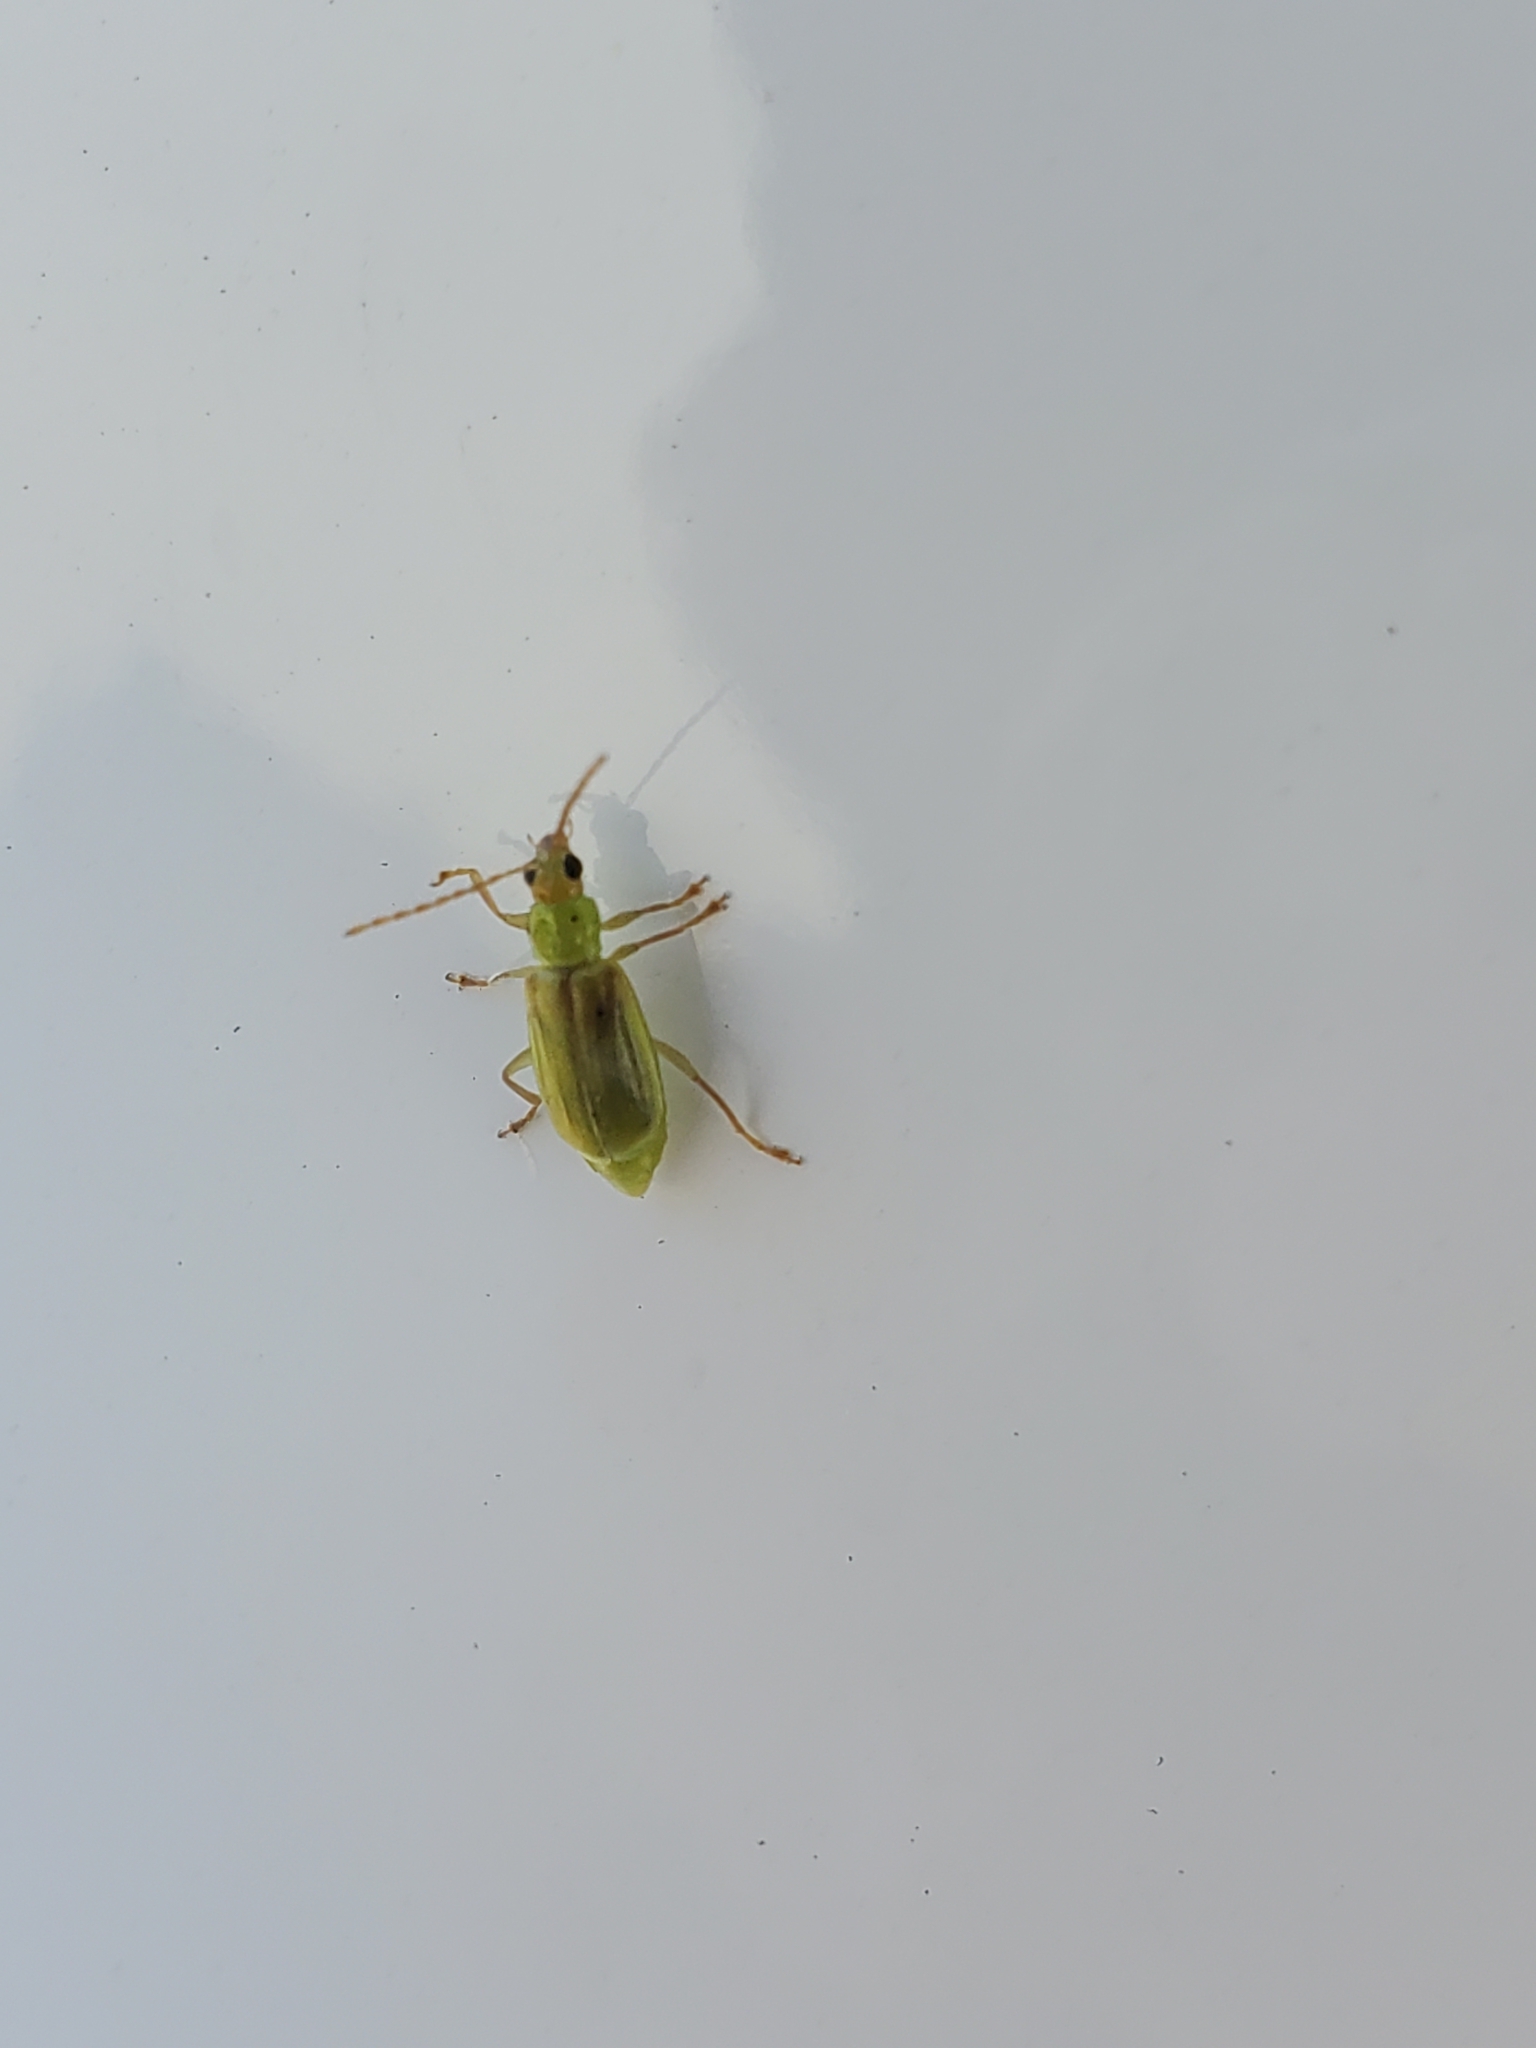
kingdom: Animalia
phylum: Arthropoda
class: Insecta
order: Coleoptera
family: Chrysomelidae
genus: Diabrotica
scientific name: Diabrotica barberi
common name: Northern corn rootworm
